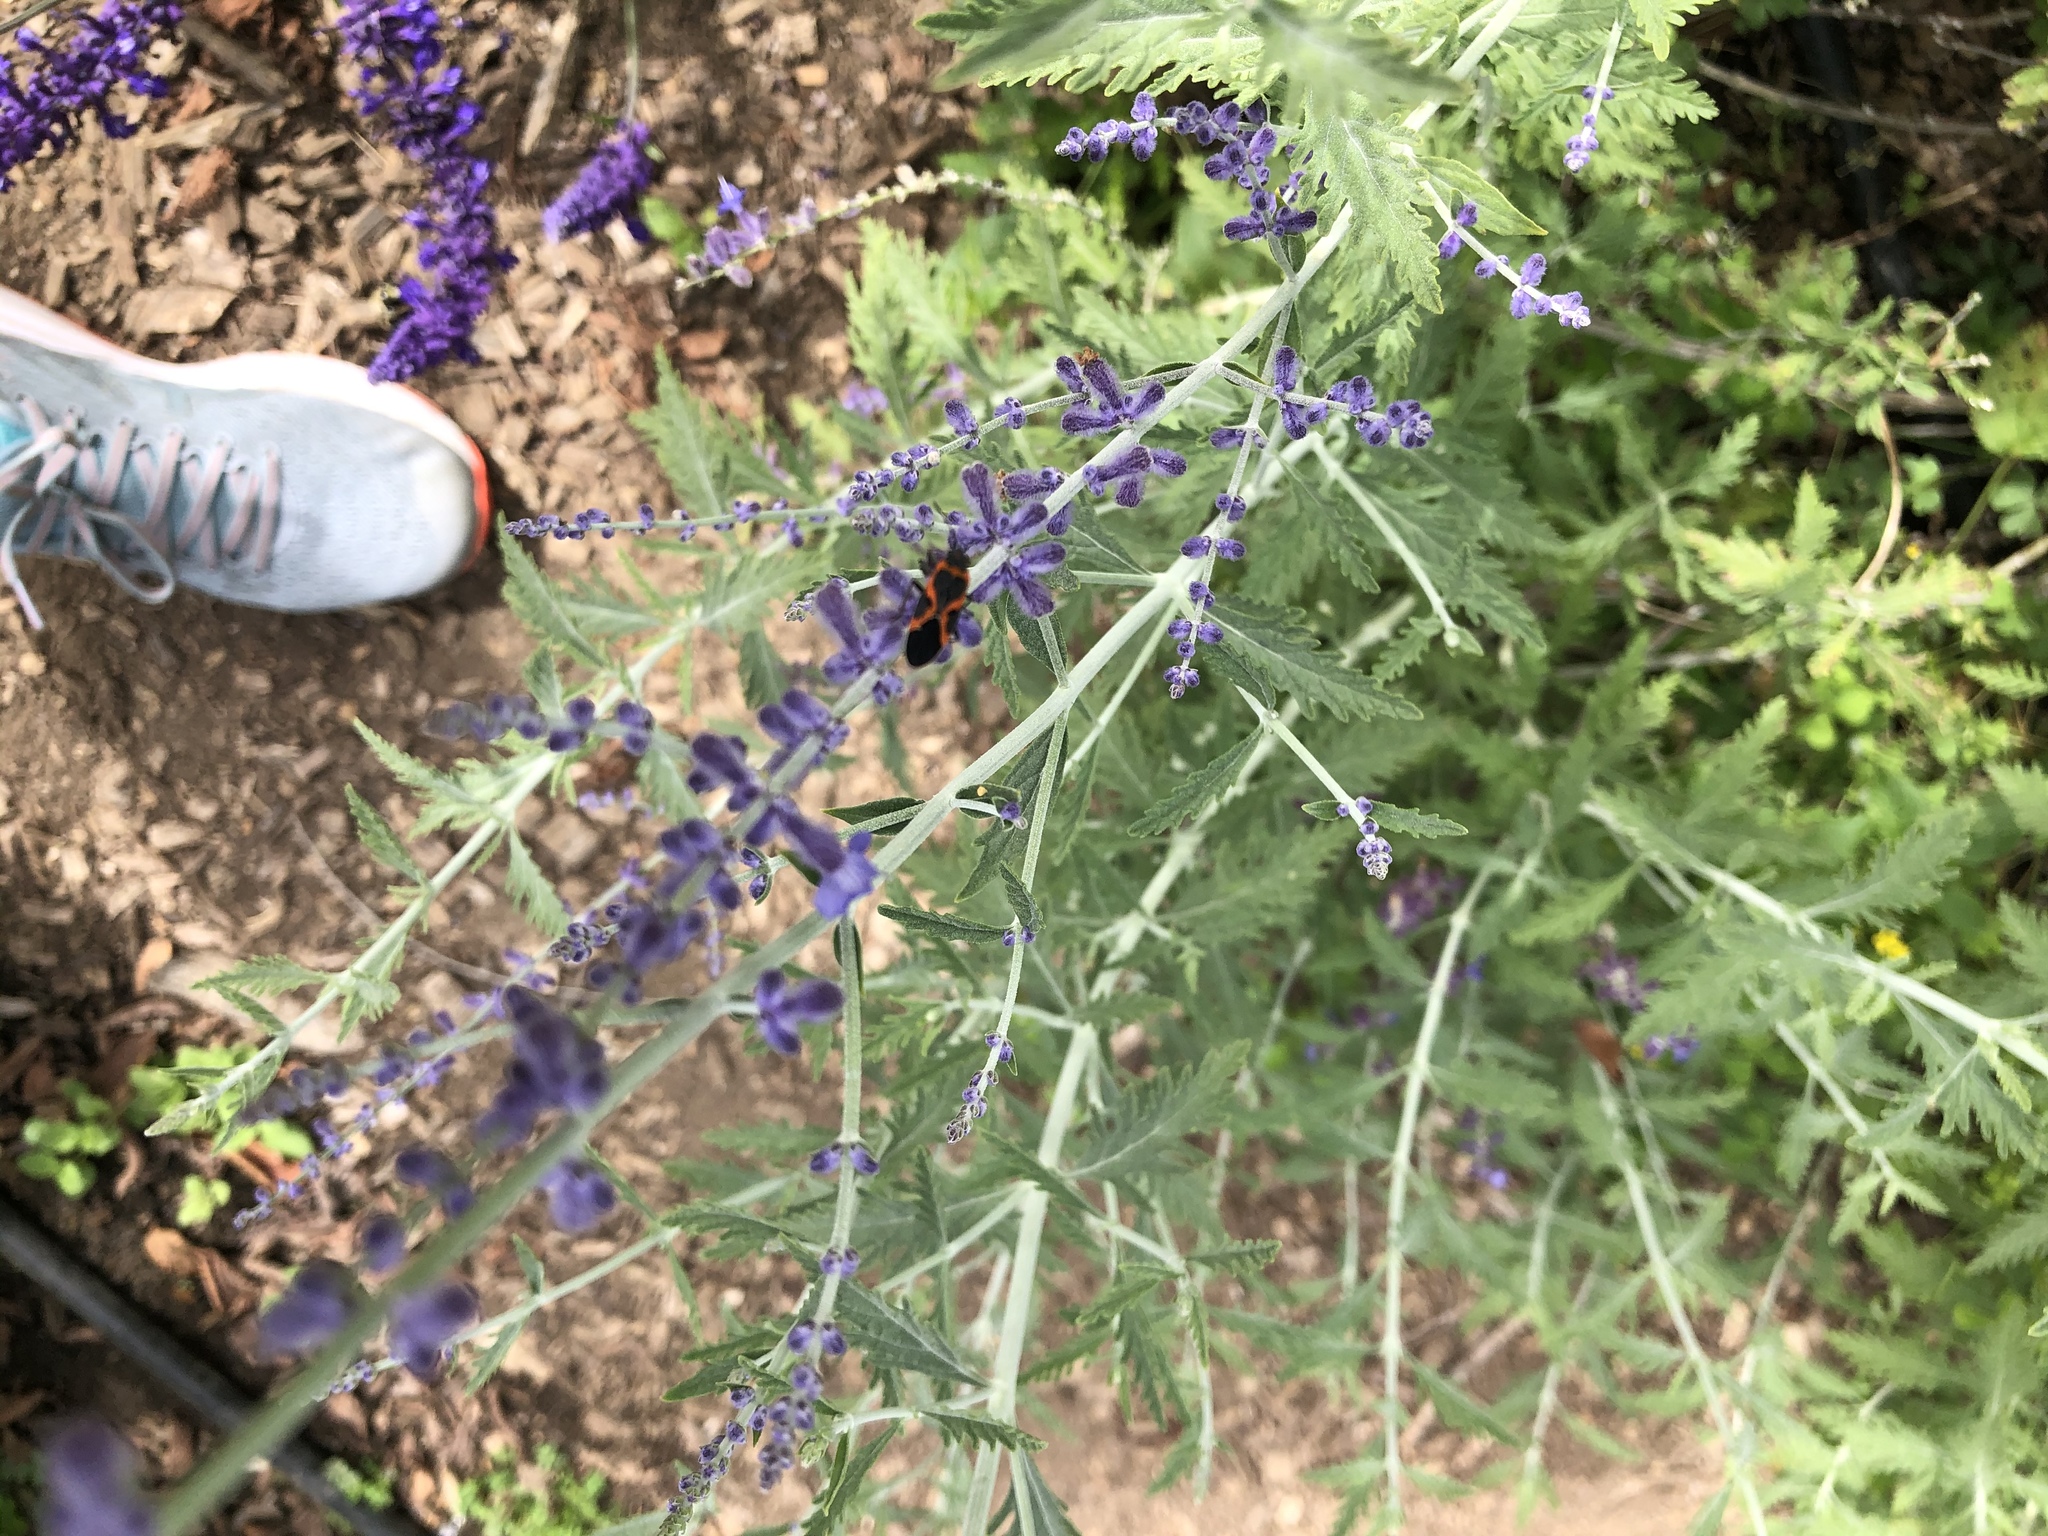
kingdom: Animalia
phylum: Arthropoda
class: Insecta
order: Hemiptera
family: Lygaeidae
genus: Lygaeus
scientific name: Lygaeus kalmii
